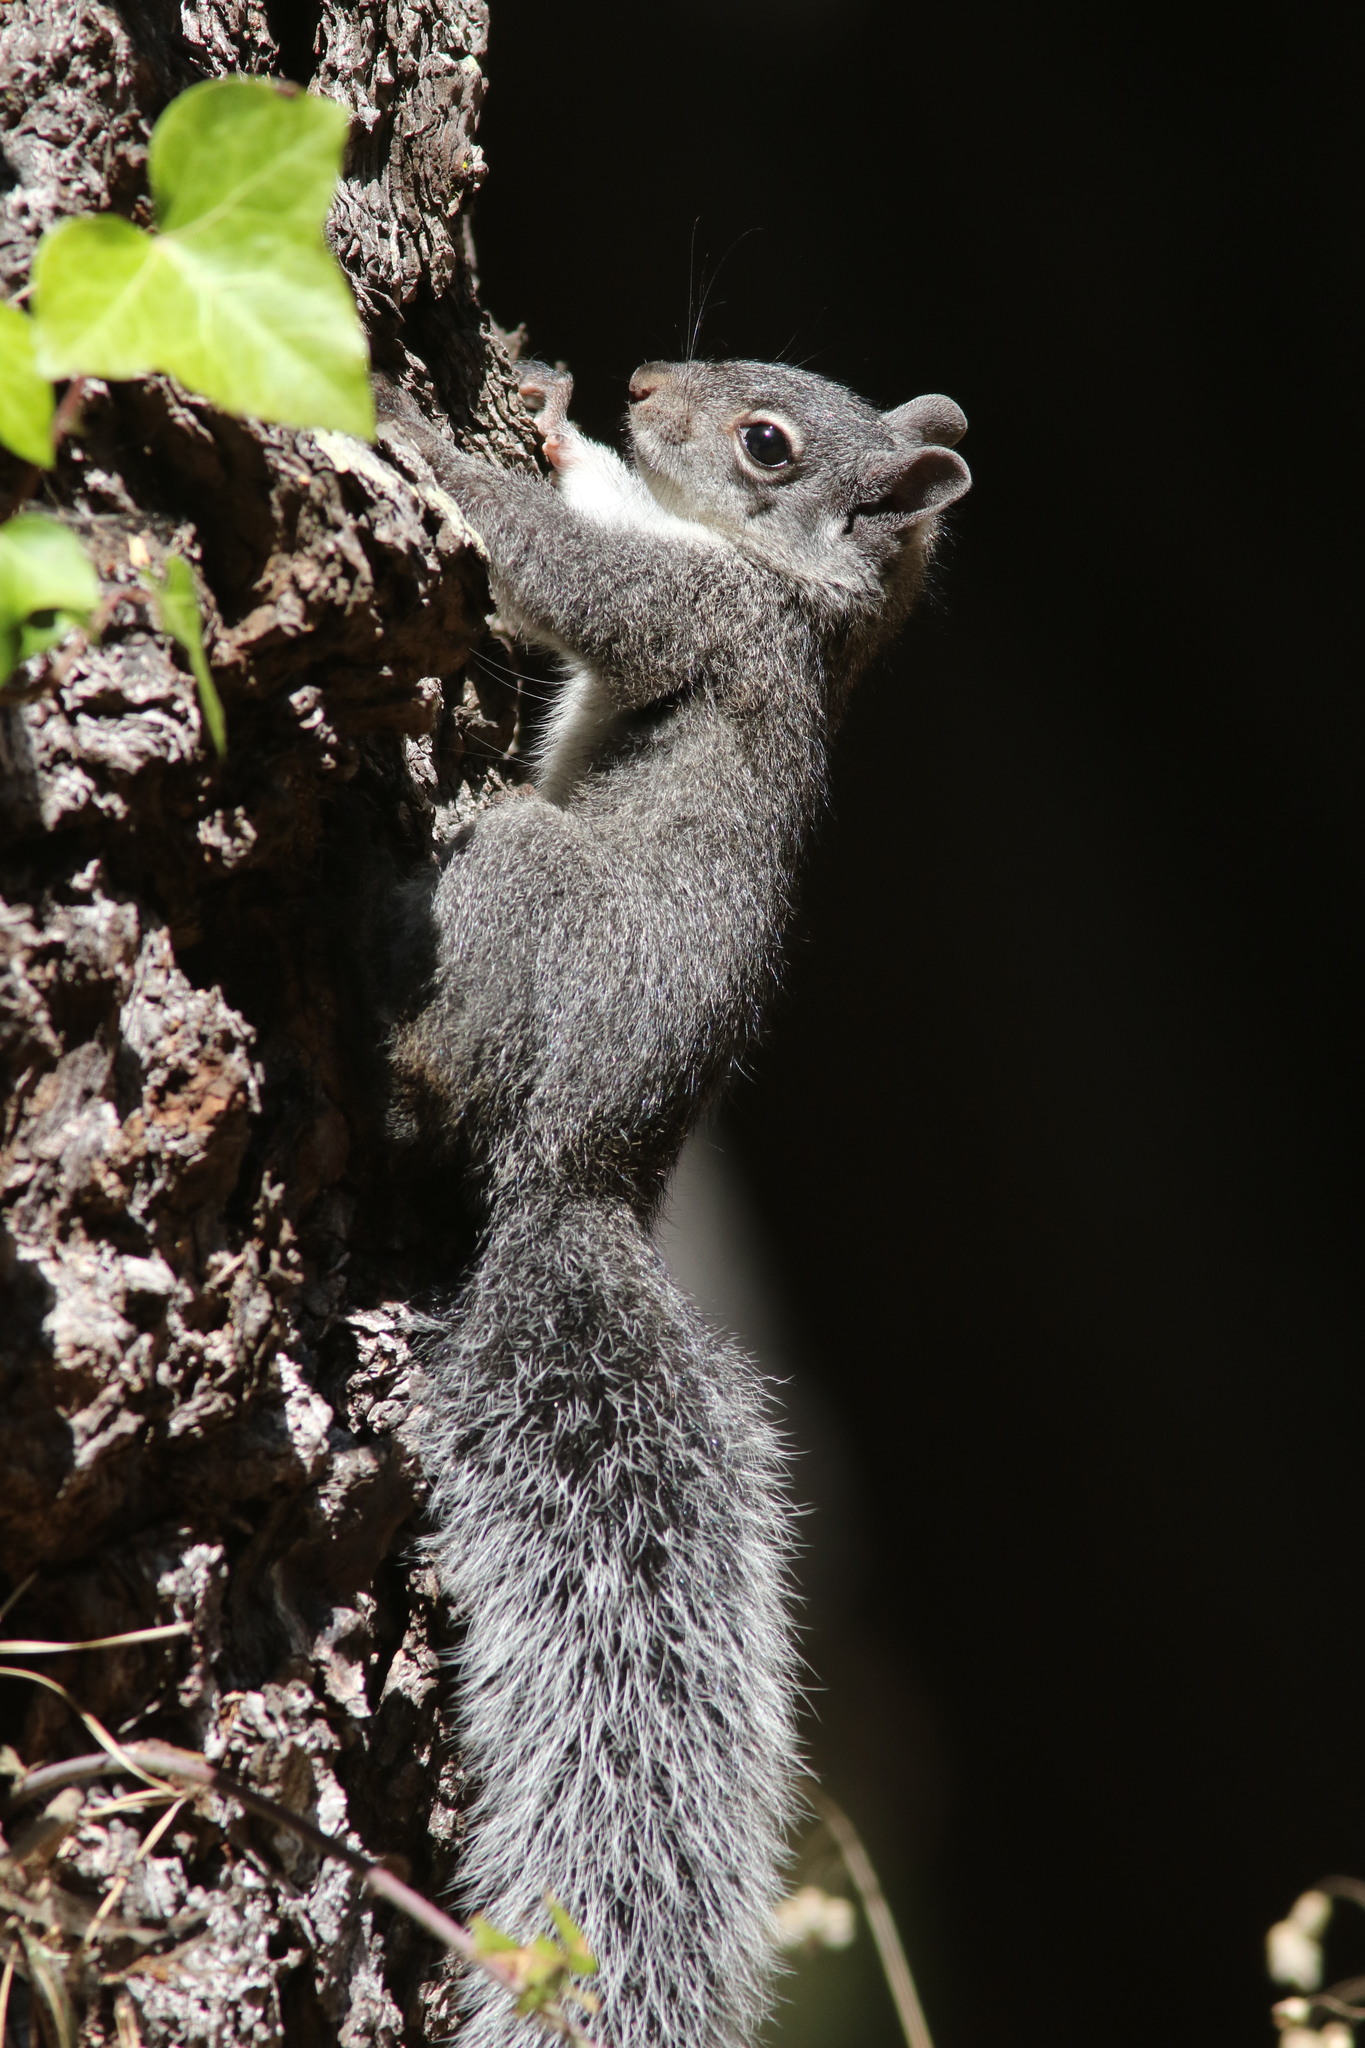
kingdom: Animalia
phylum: Chordata
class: Mammalia
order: Rodentia
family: Sciuridae
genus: Sciurus
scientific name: Sciurus griseus
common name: Western gray squirrel
